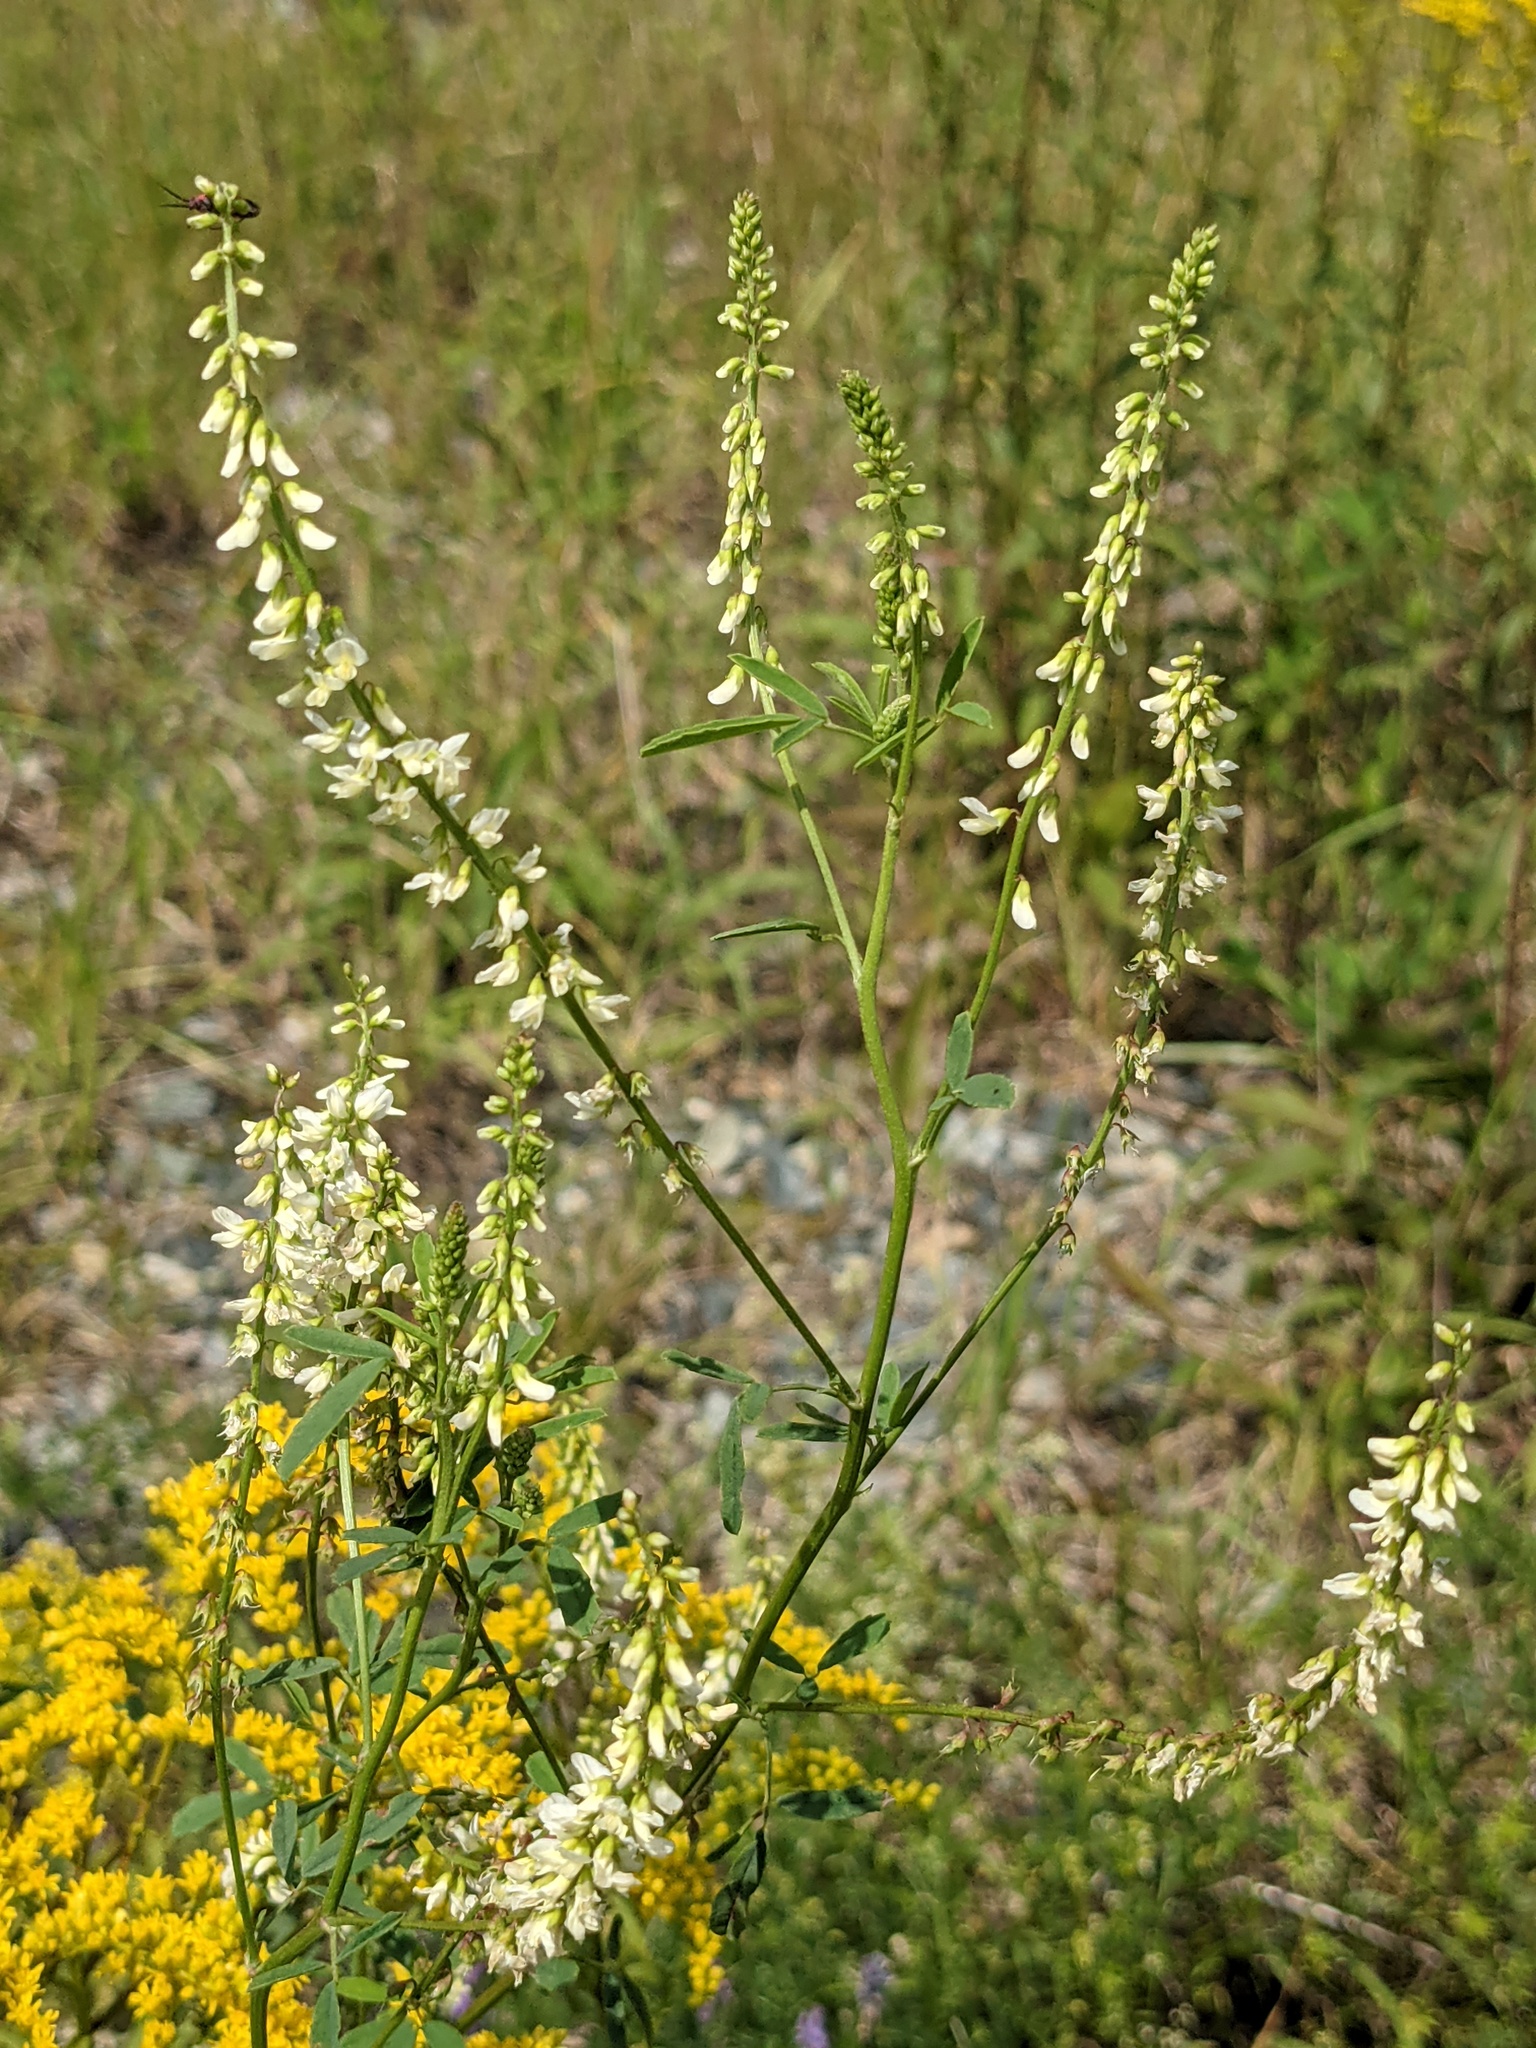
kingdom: Plantae
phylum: Tracheophyta
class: Magnoliopsida
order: Fabales
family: Fabaceae
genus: Melilotus
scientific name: Melilotus albus
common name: White melilot
